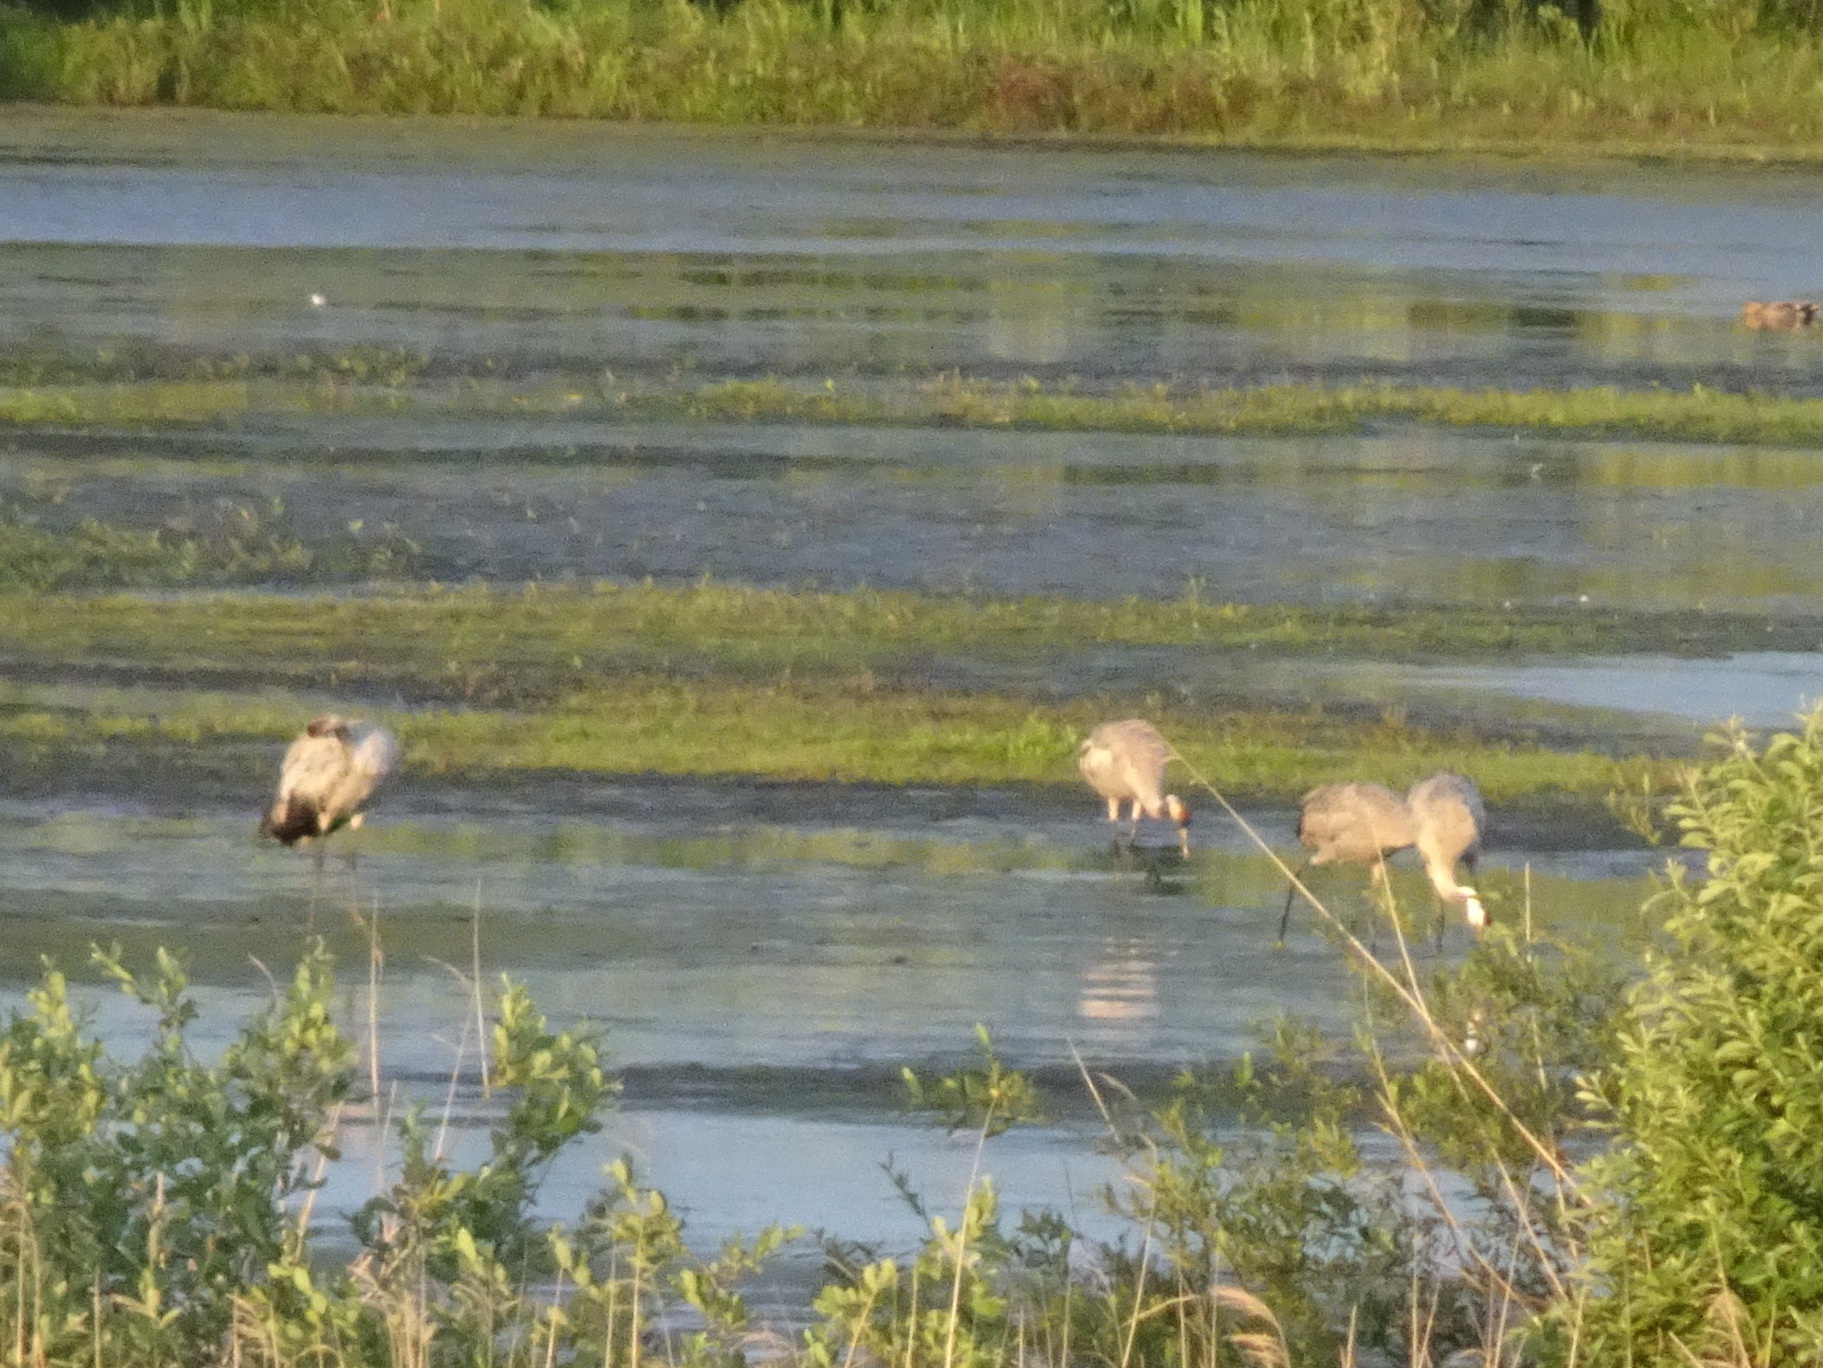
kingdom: Animalia
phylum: Chordata
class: Aves
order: Gruiformes
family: Gruidae
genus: Grus
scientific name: Grus grus
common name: Common crane
